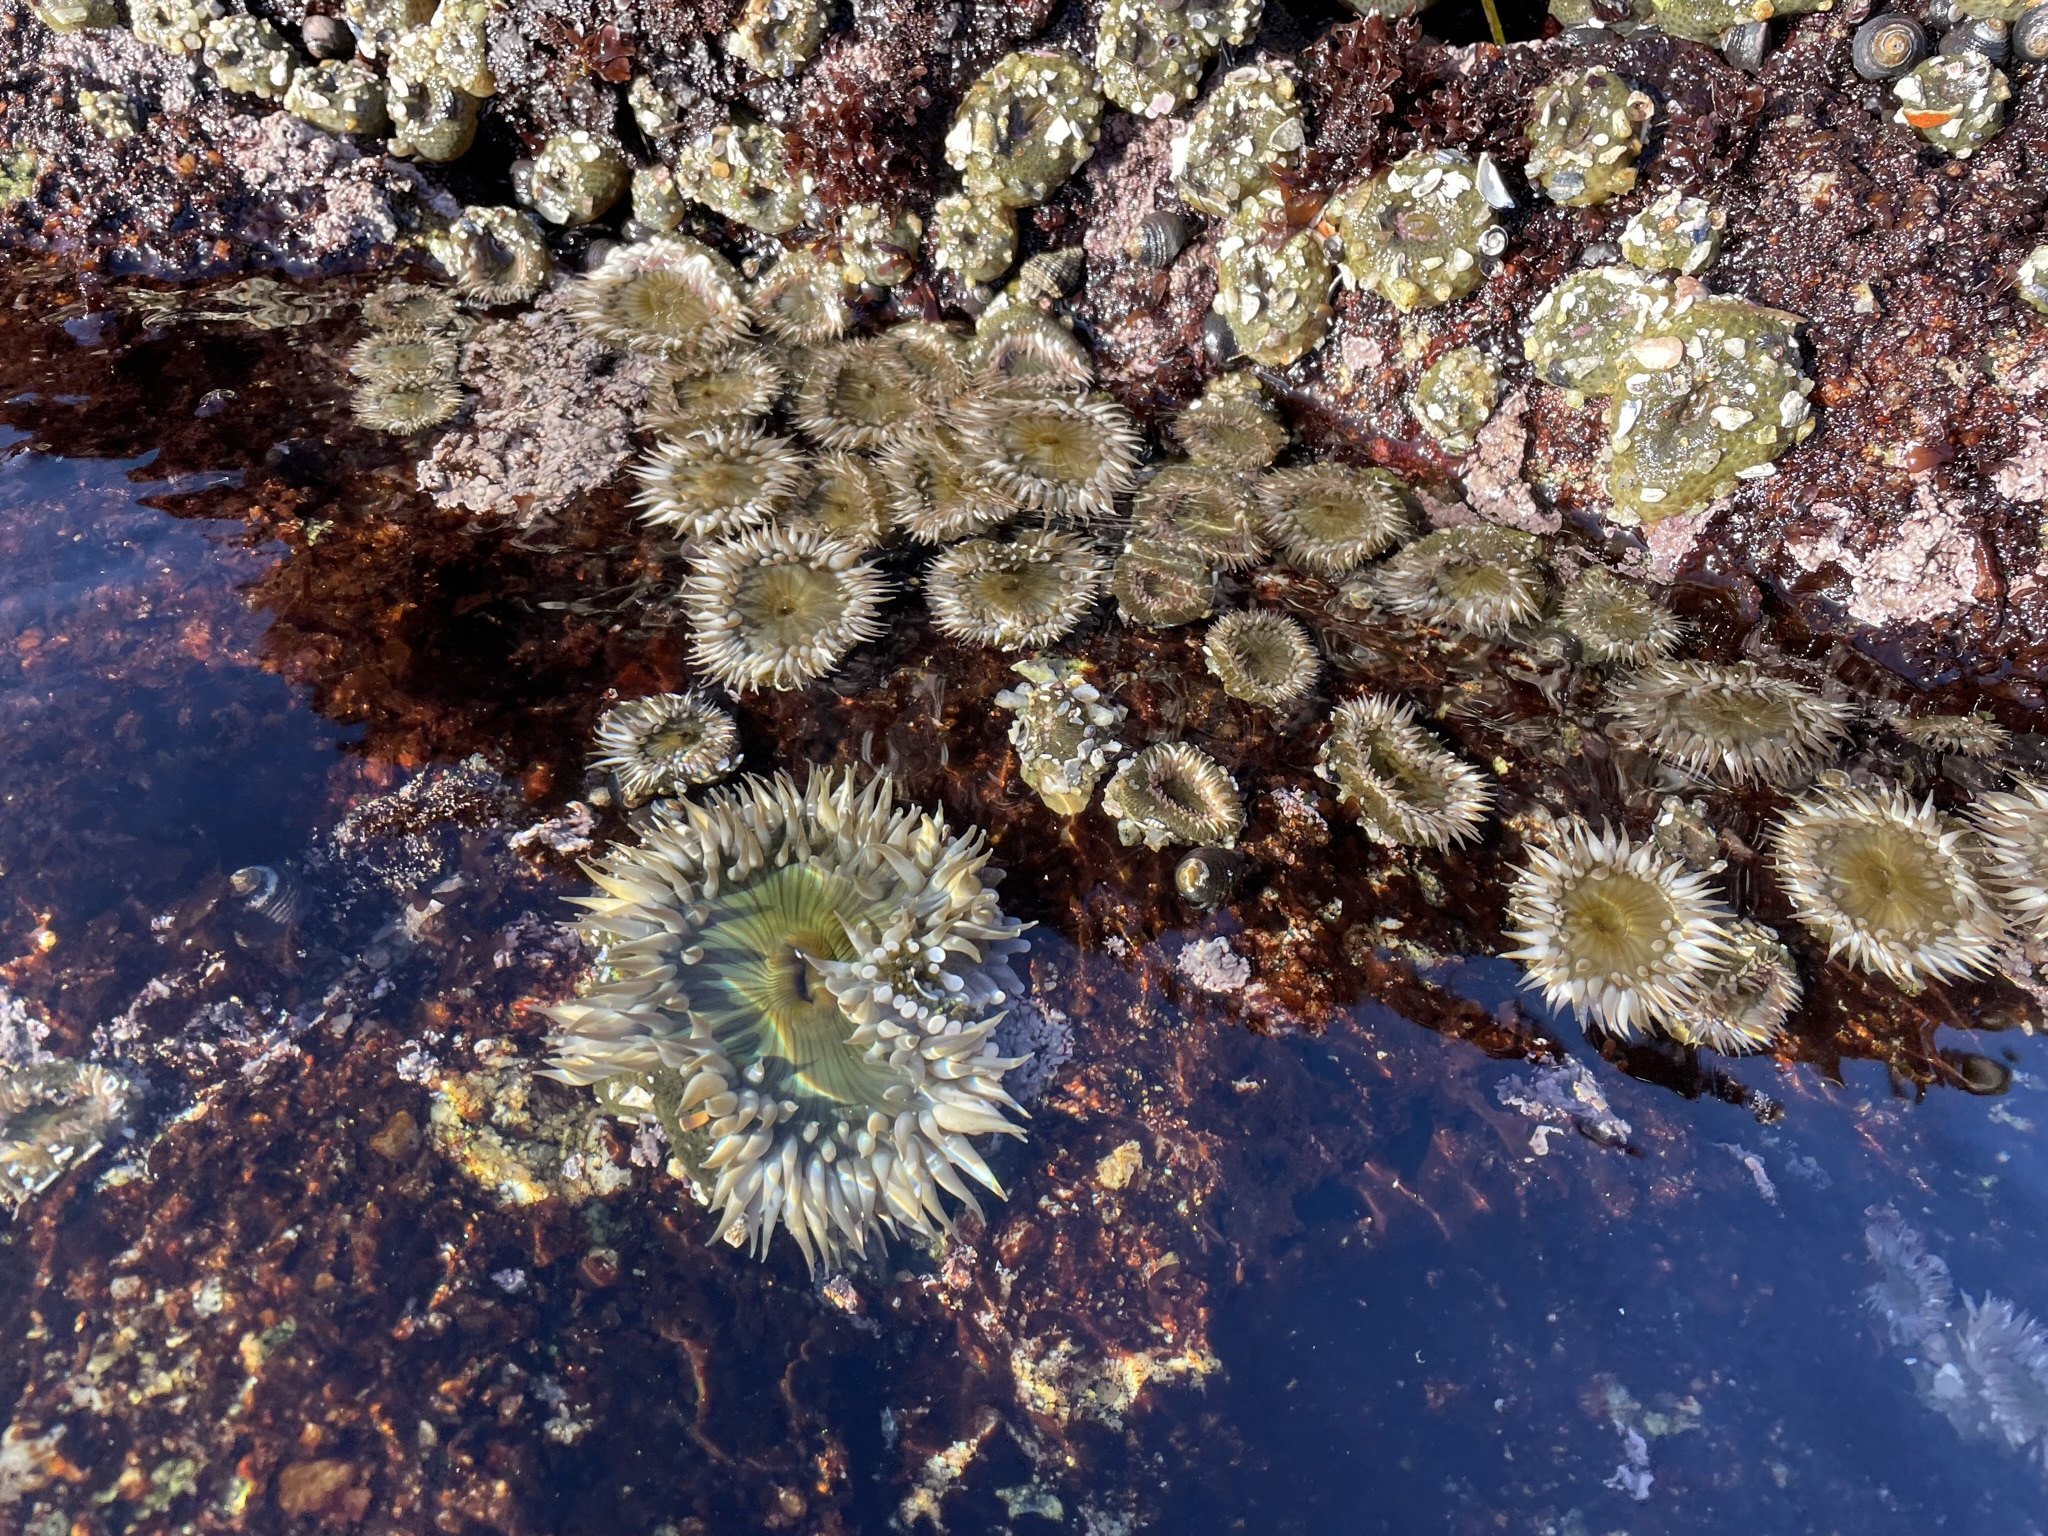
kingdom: Animalia
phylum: Cnidaria
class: Anthozoa
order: Actiniaria
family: Actiniidae
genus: Anthopleura
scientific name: Anthopleura elegantissima
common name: Clonal anemone
